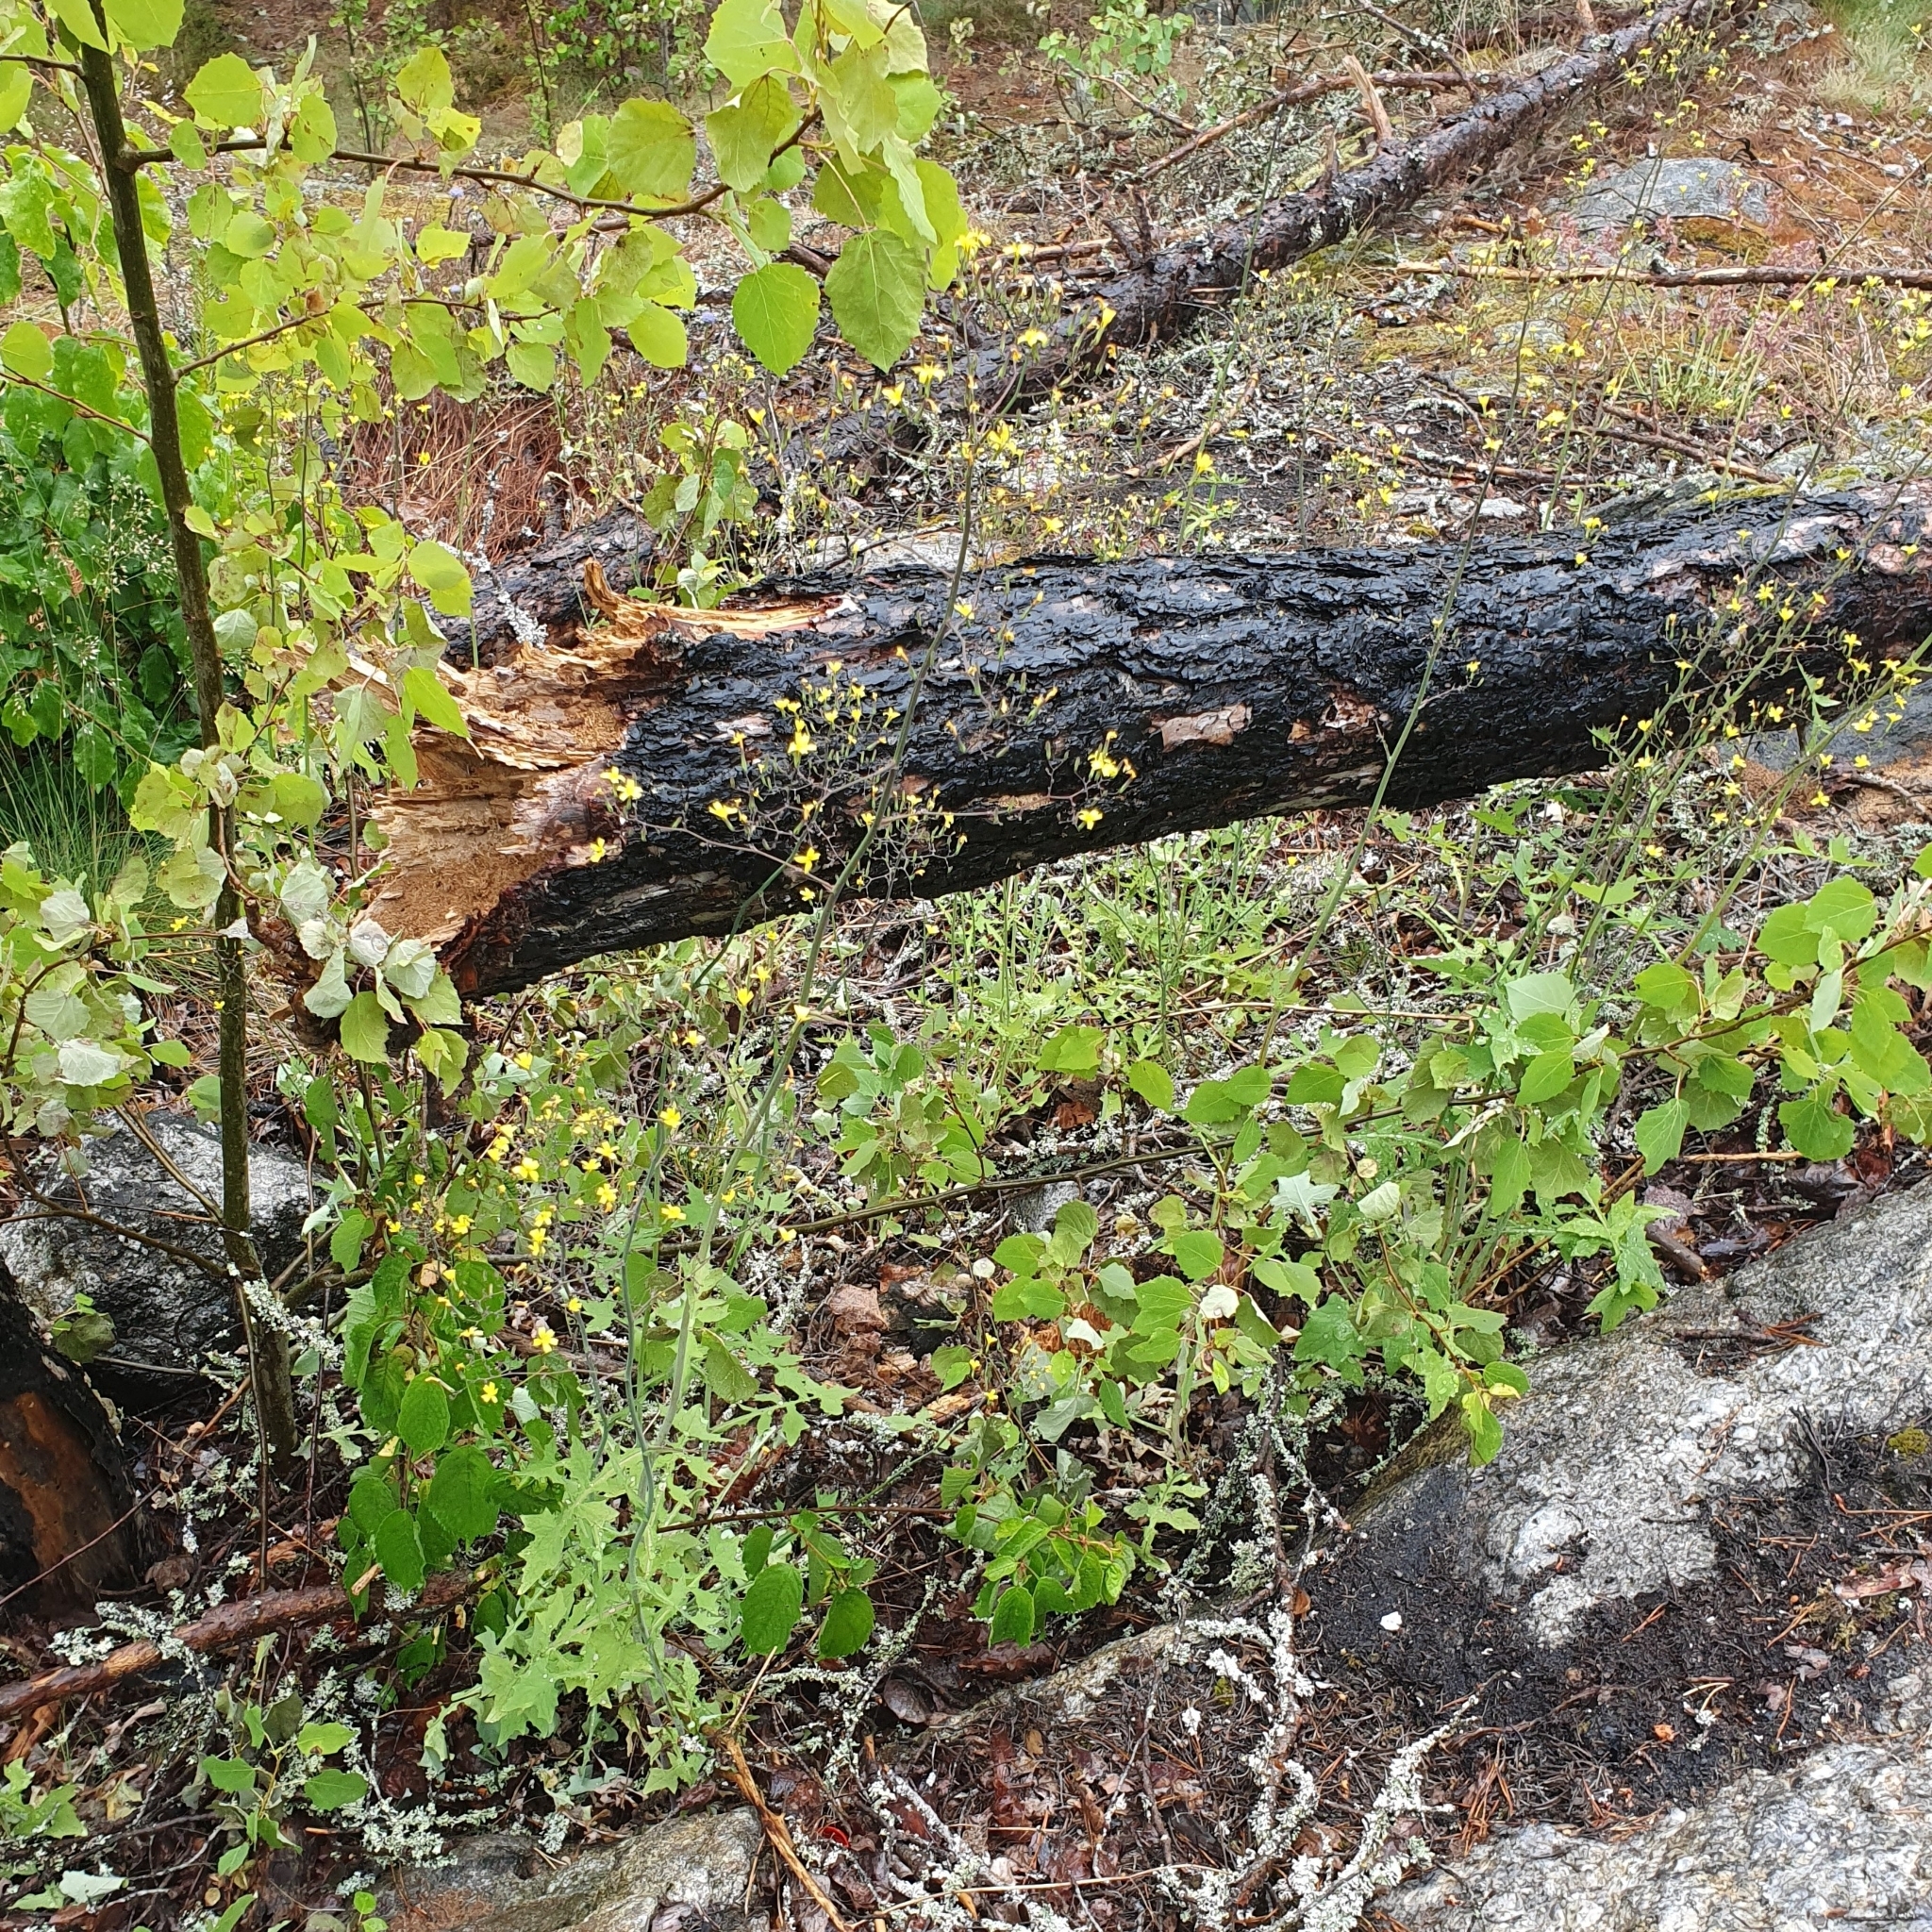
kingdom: Plantae
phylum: Tracheophyta
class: Magnoliopsida
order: Asterales
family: Asteraceae
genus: Mycelis
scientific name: Mycelis muralis
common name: Wall lettuce
